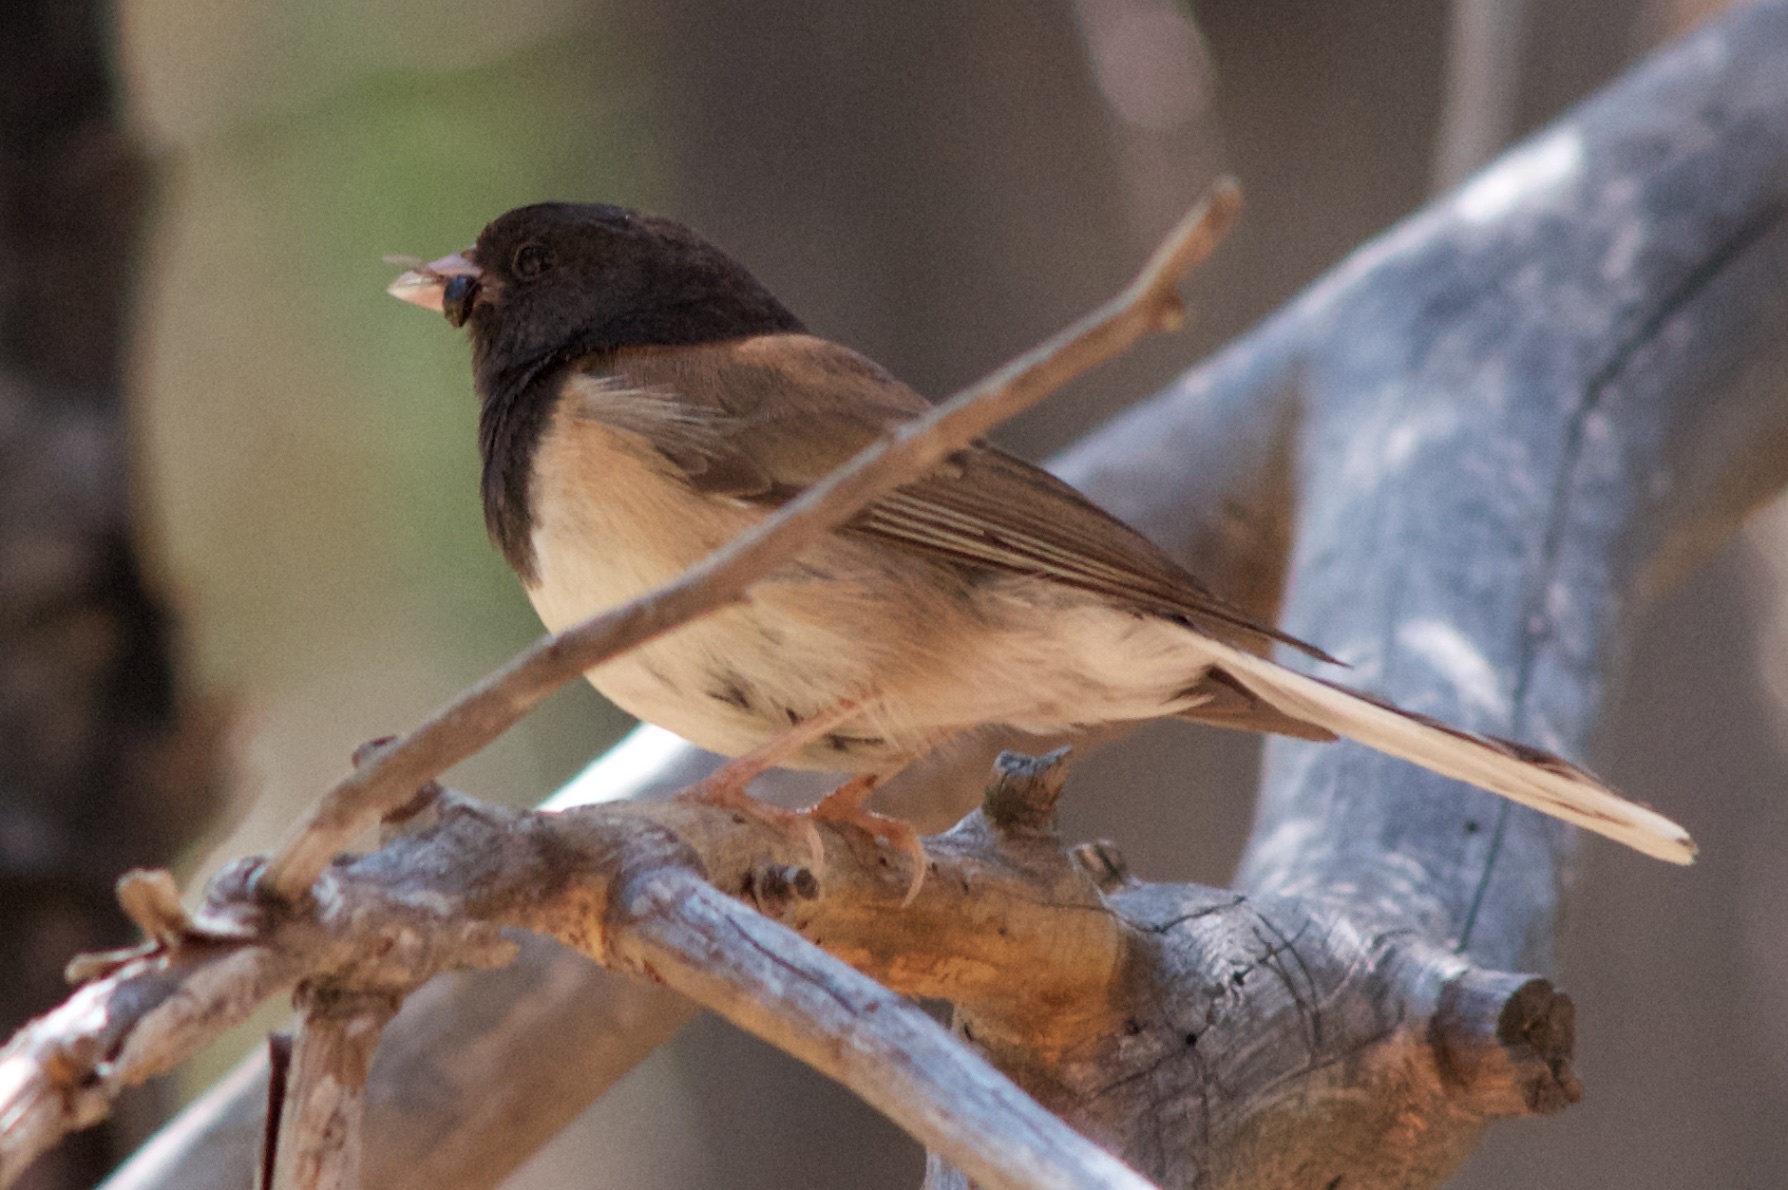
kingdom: Animalia
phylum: Chordata
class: Aves
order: Passeriformes
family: Passerellidae
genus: Junco
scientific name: Junco hyemalis
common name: Dark-eyed junco
